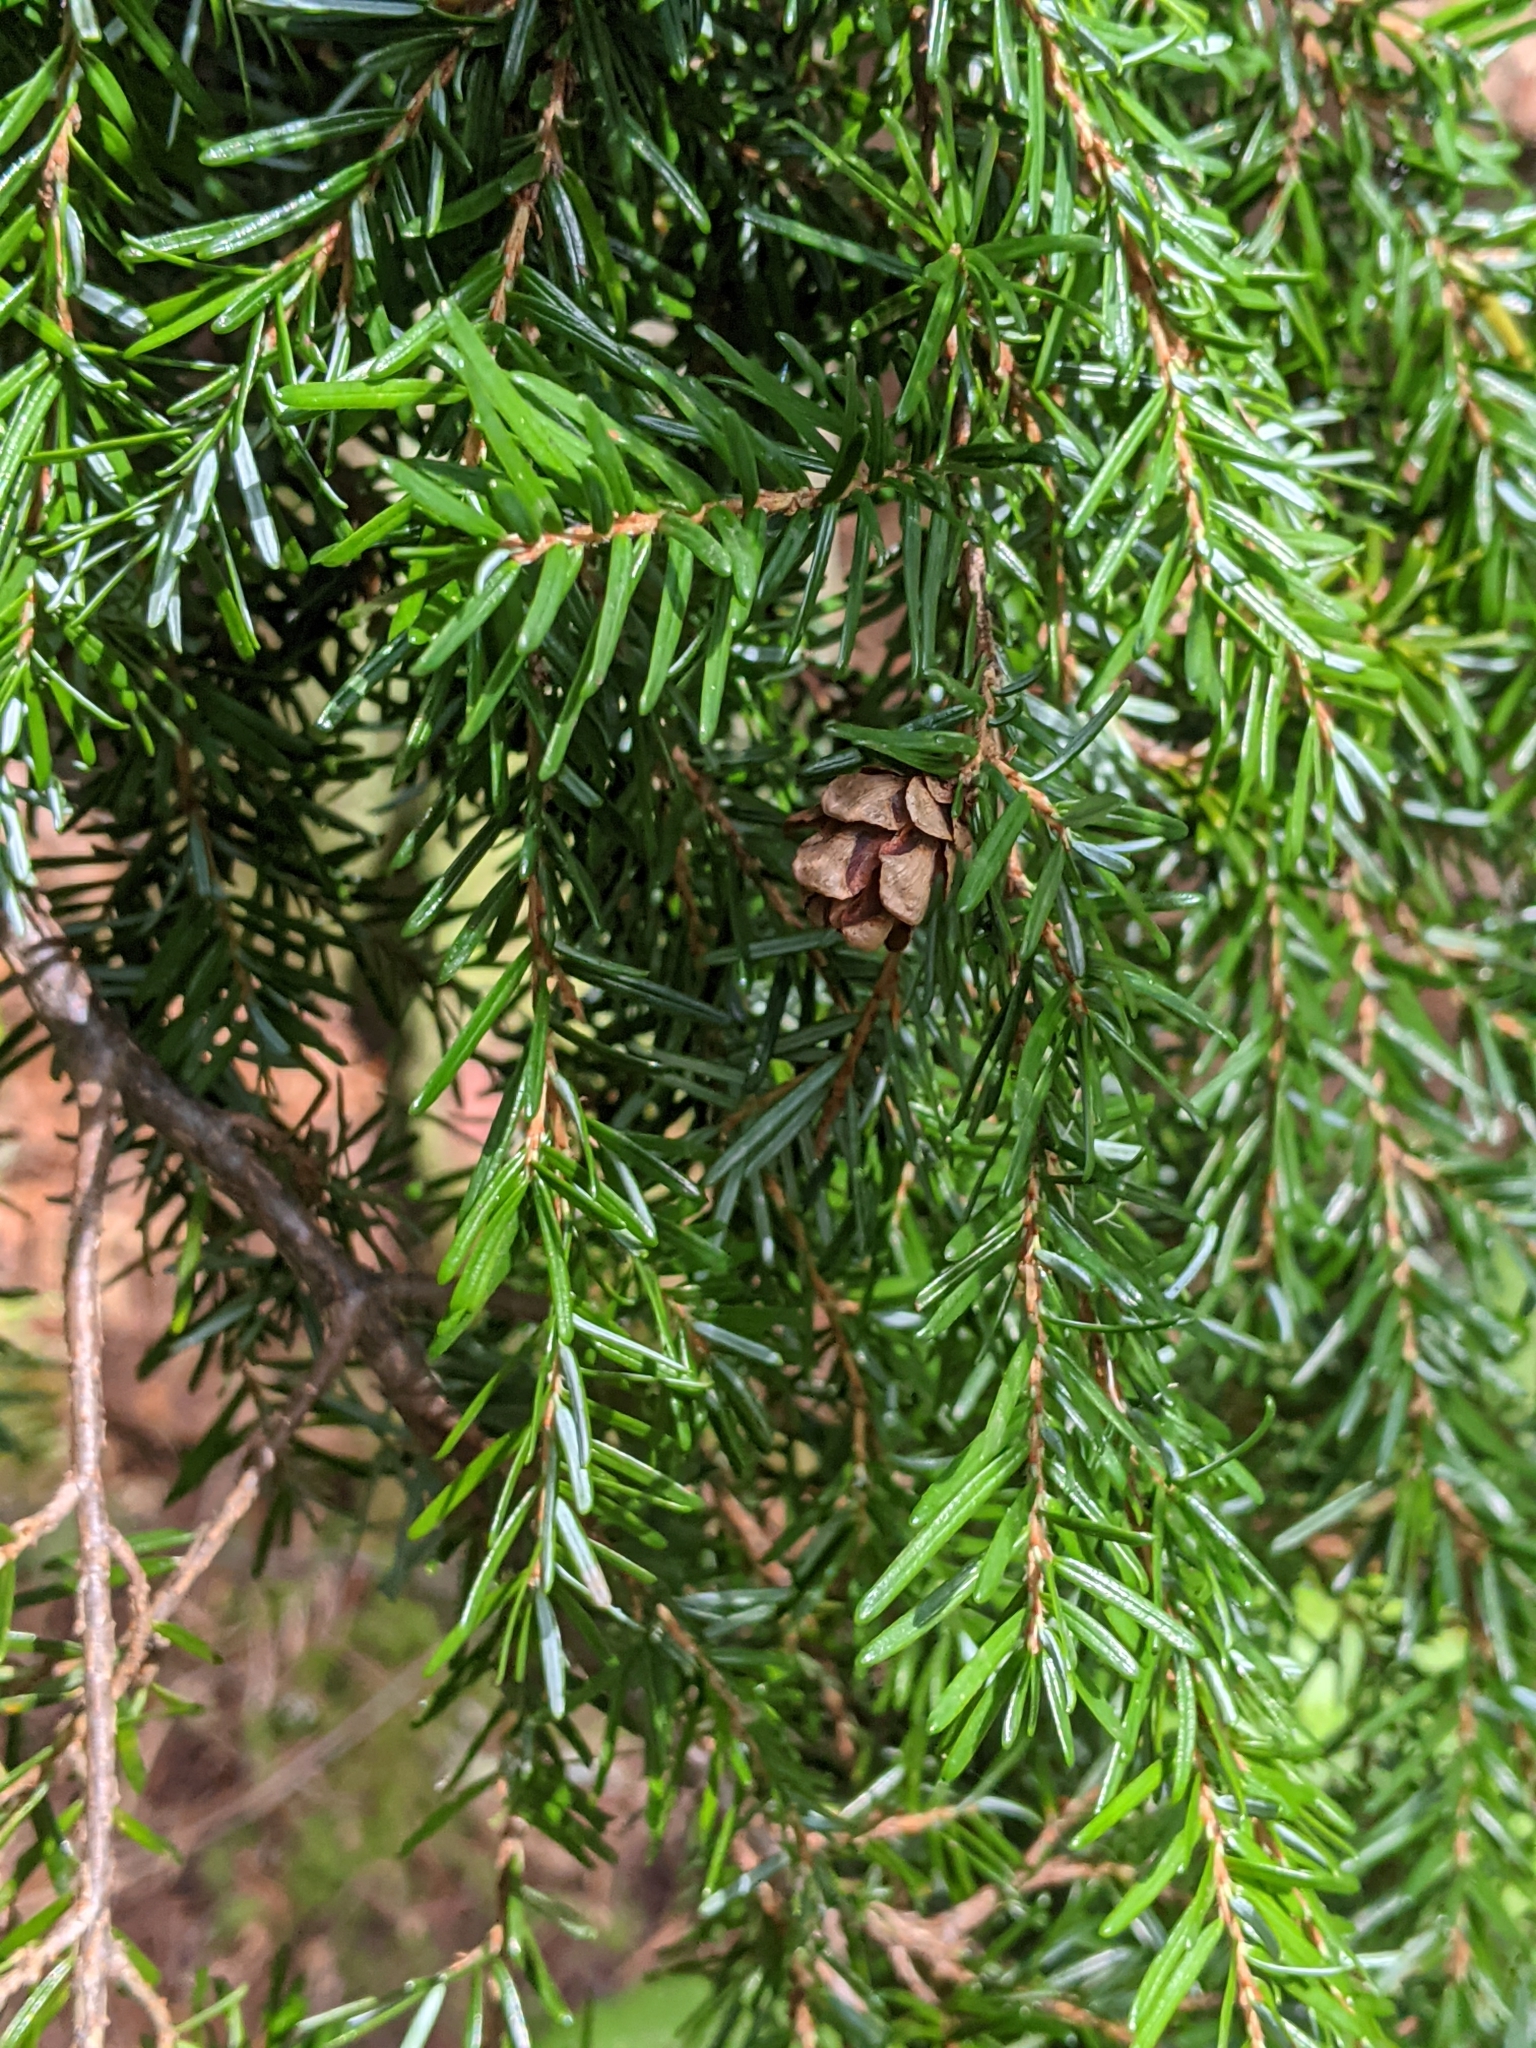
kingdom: Plantae
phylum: Tracheophyta
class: Pinopsida
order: Pinales
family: Pinaceae
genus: Tsuga
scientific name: Tsuga heterophylla
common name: Western hemlock
